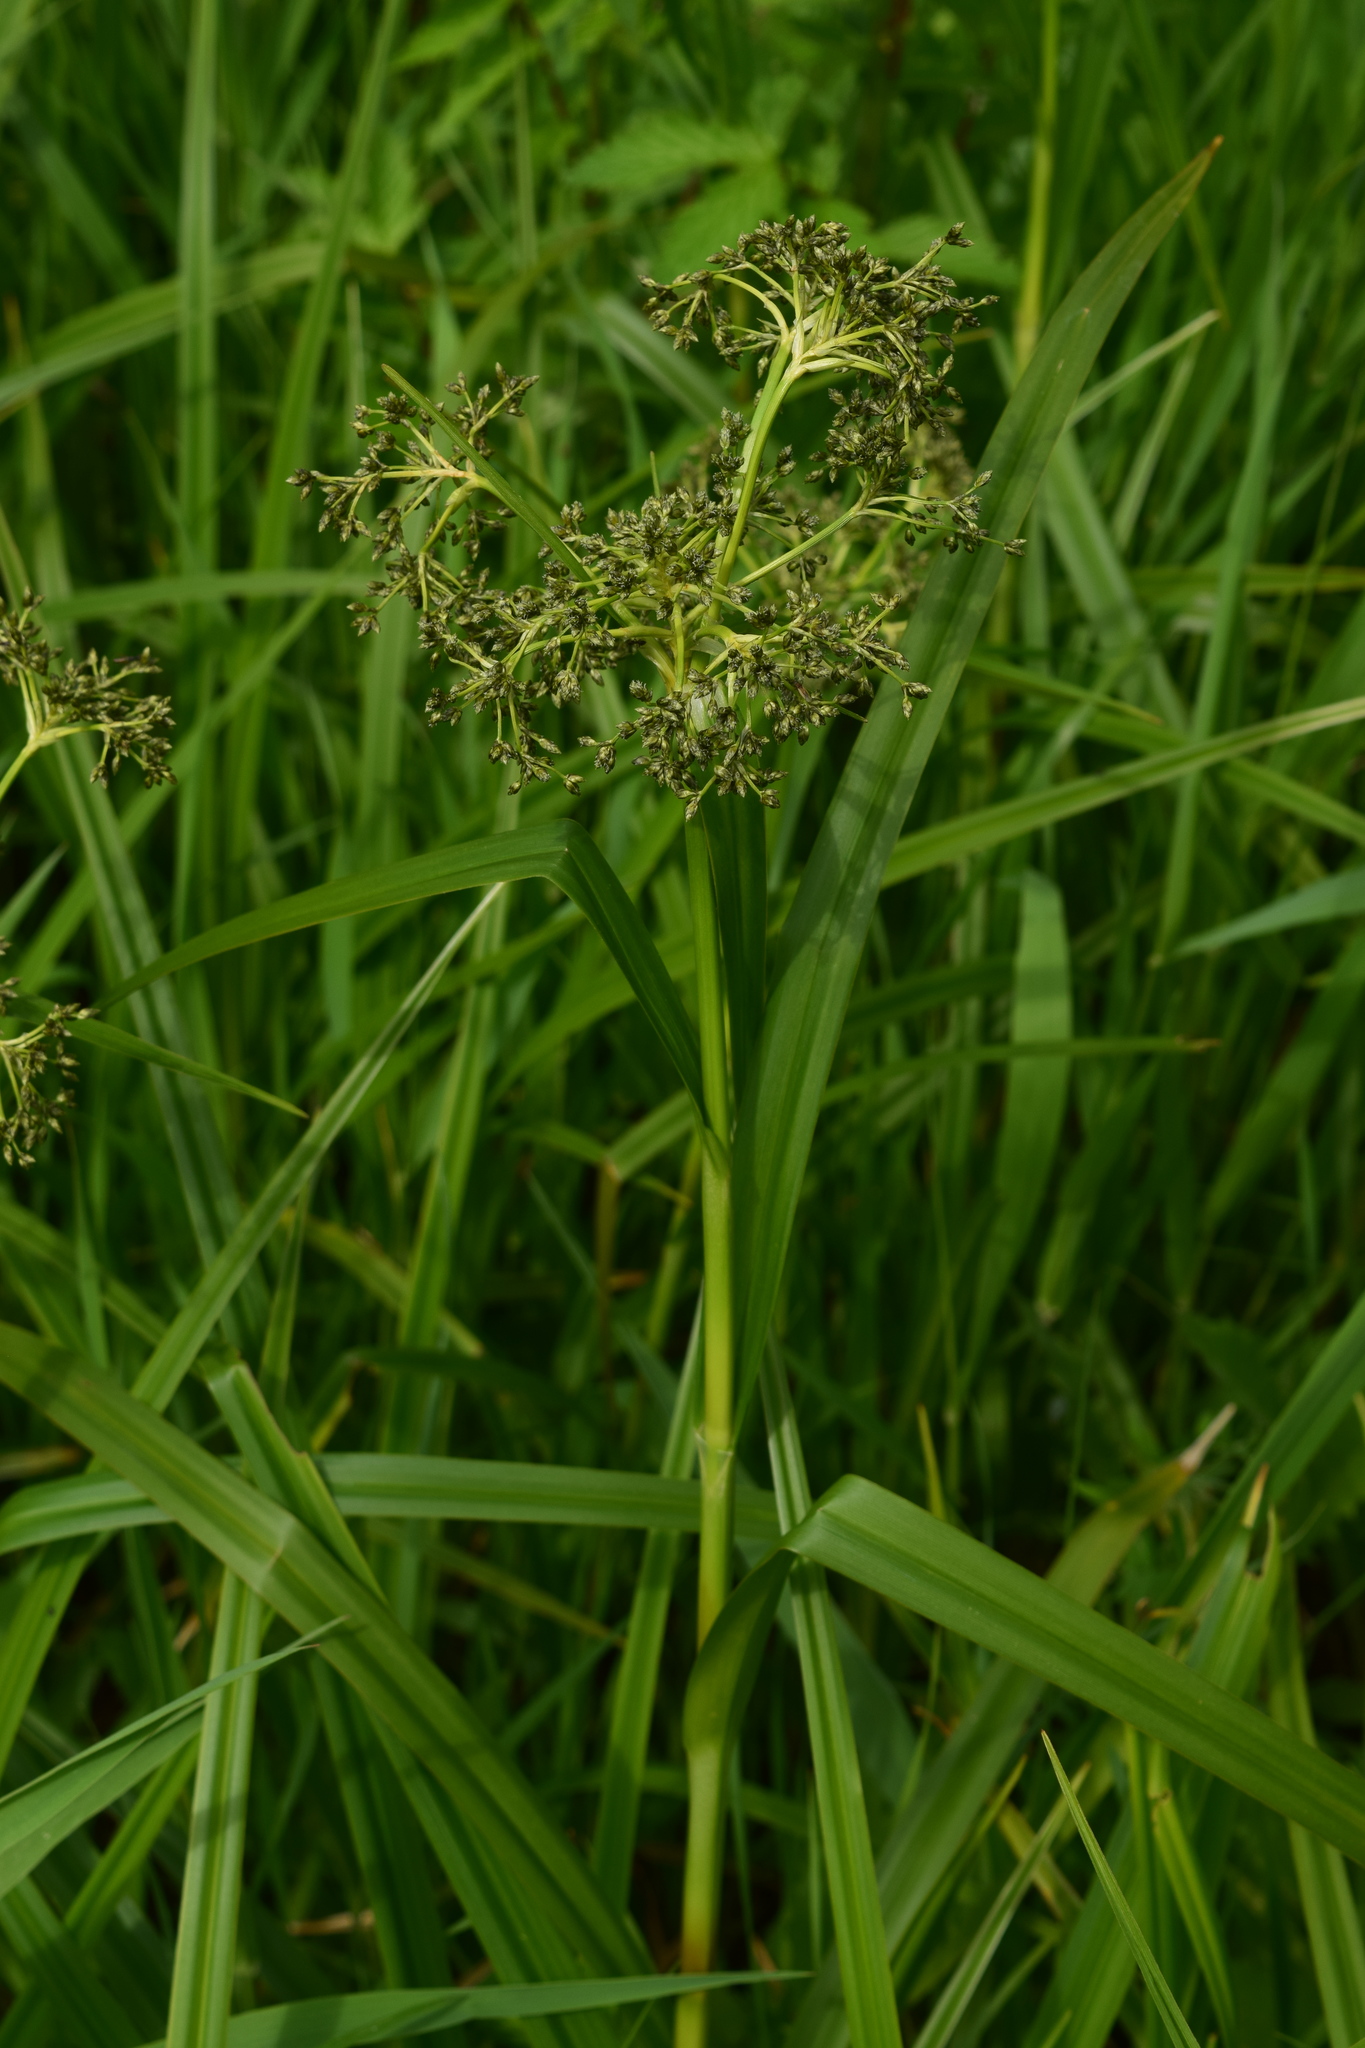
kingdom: Plantae
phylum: Tracheophyta
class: Liliopsida
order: Poales
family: Cyperaceae
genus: Scirpus
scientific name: Scirpus sylvaticus
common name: Wood club-rush
